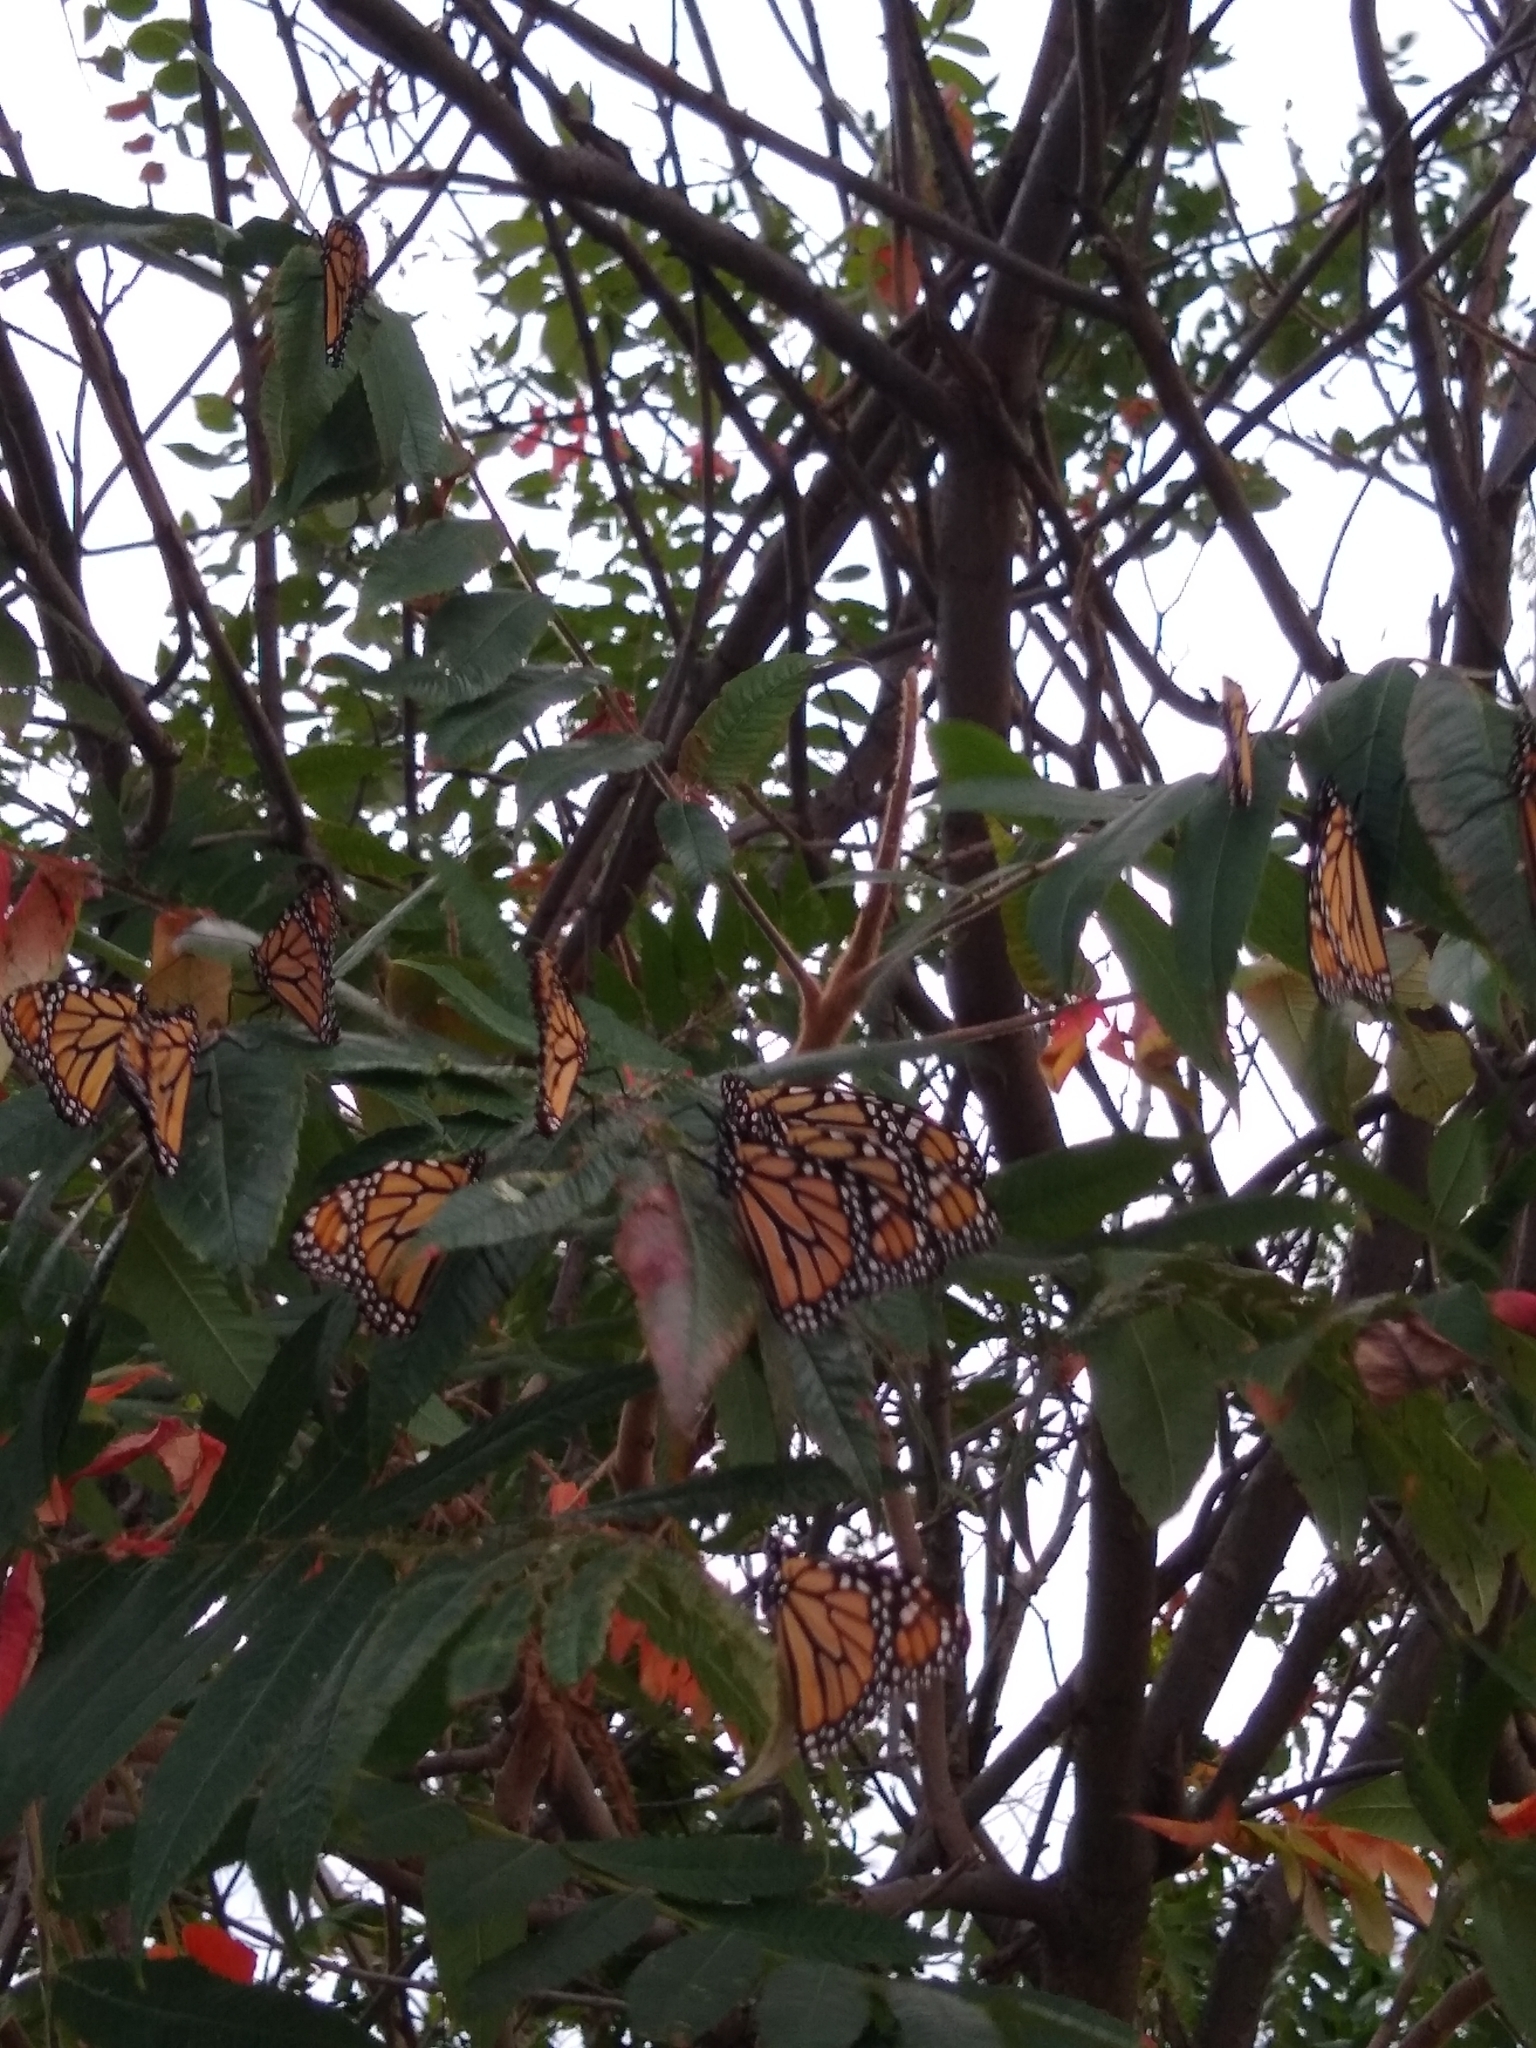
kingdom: Animalia
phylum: Arthropoda
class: Insecta
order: Lepidoptera
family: Nymphalidae
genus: Danaus
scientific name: Danaus plexippus
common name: Monarch
